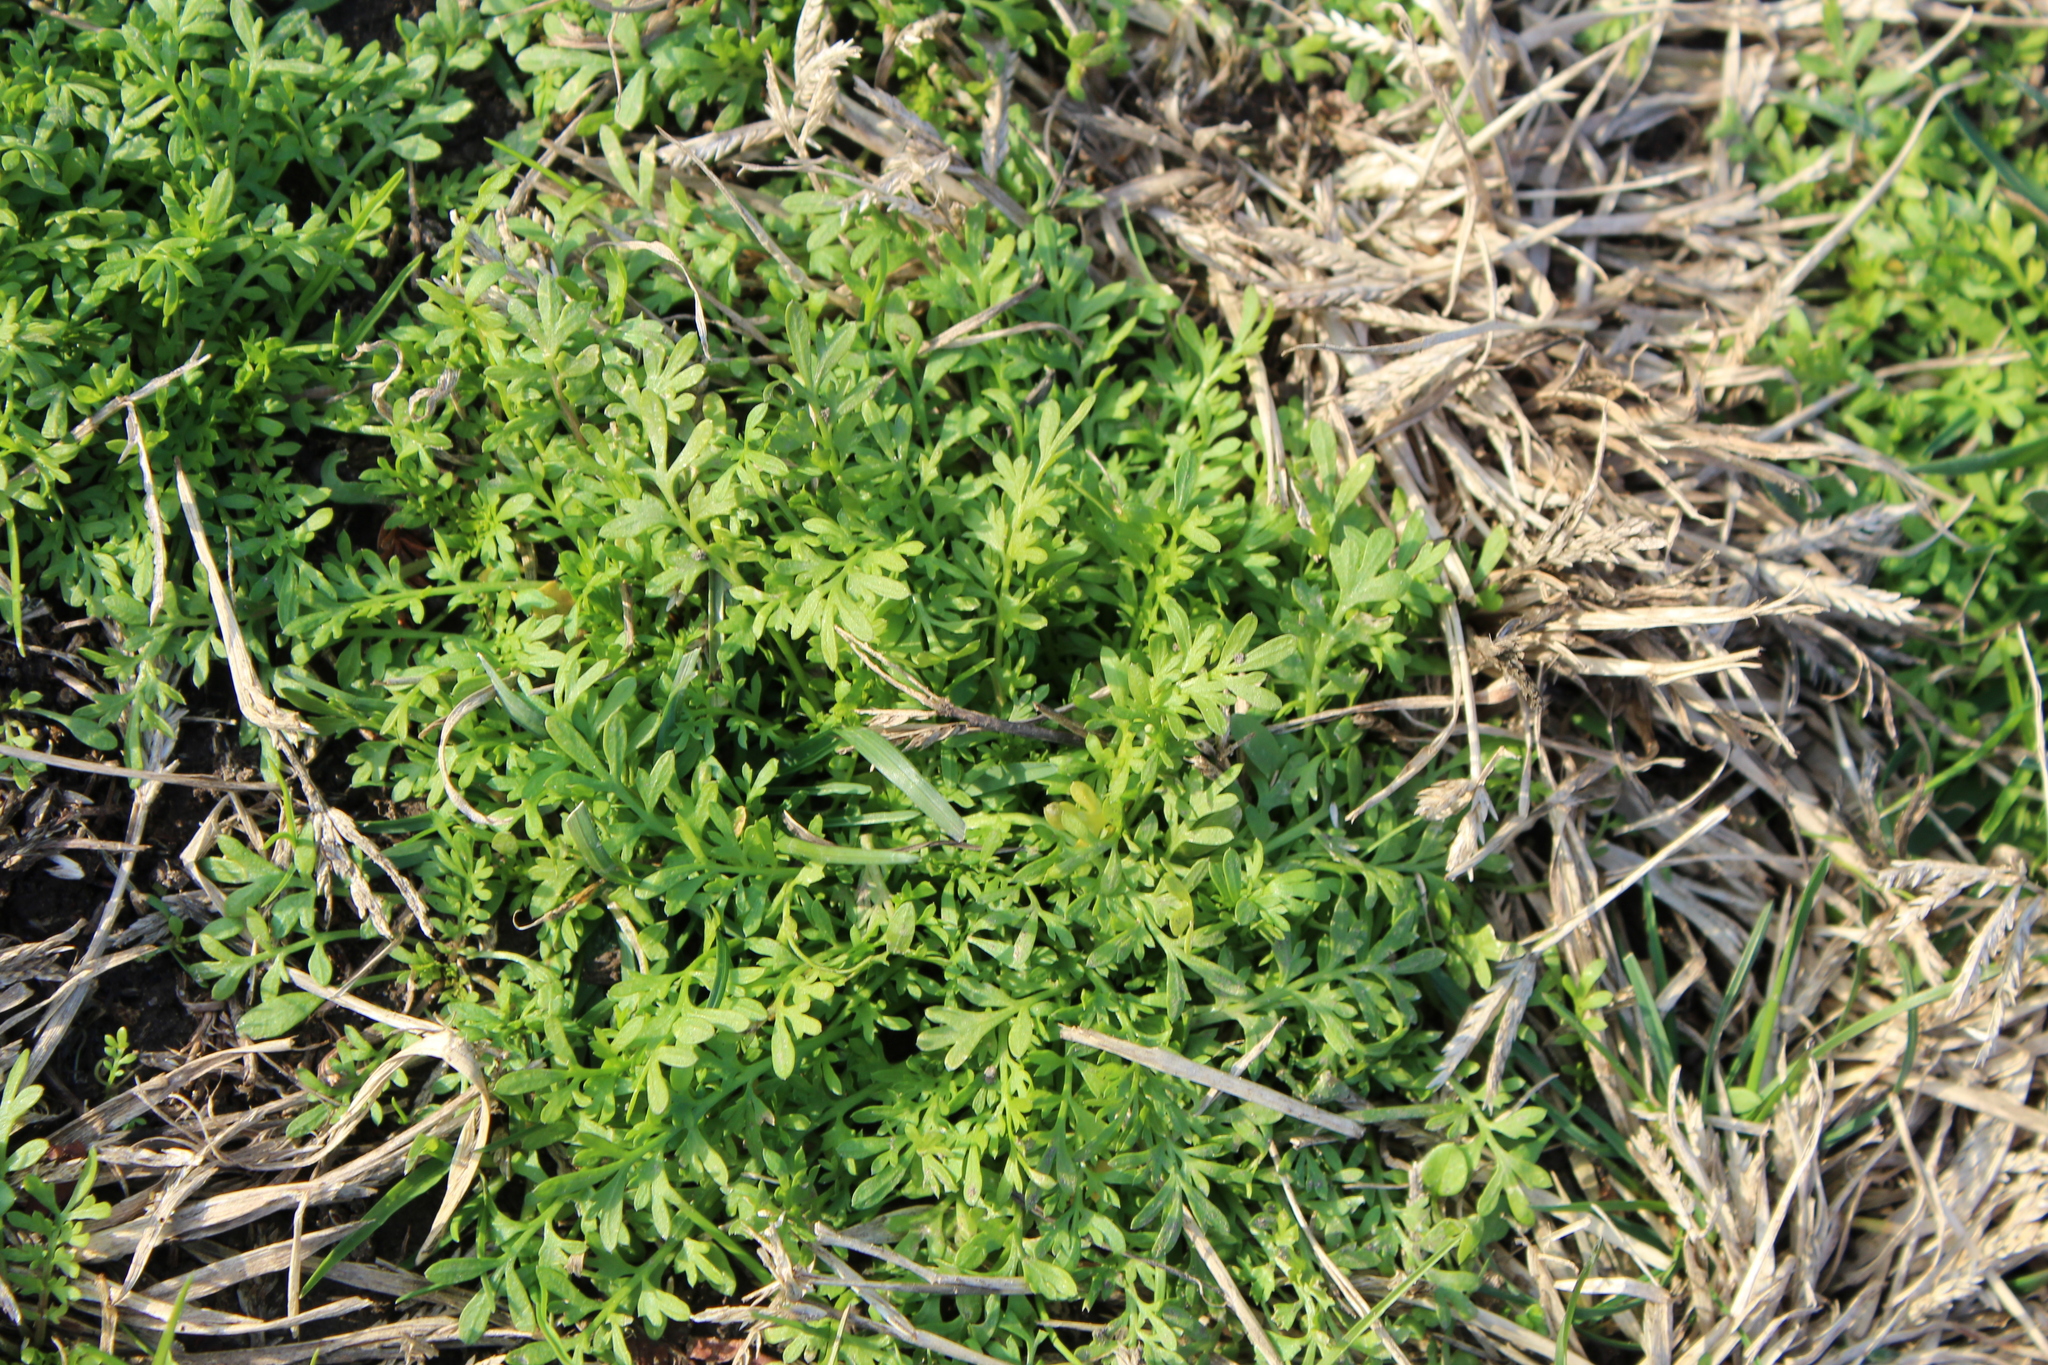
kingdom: Plantae
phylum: Tracheophyta
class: Magnoliopsida
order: Brassicales
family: Brassicaceae
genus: Lepidium
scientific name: Lepidium didymum
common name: Lesser swinecress
